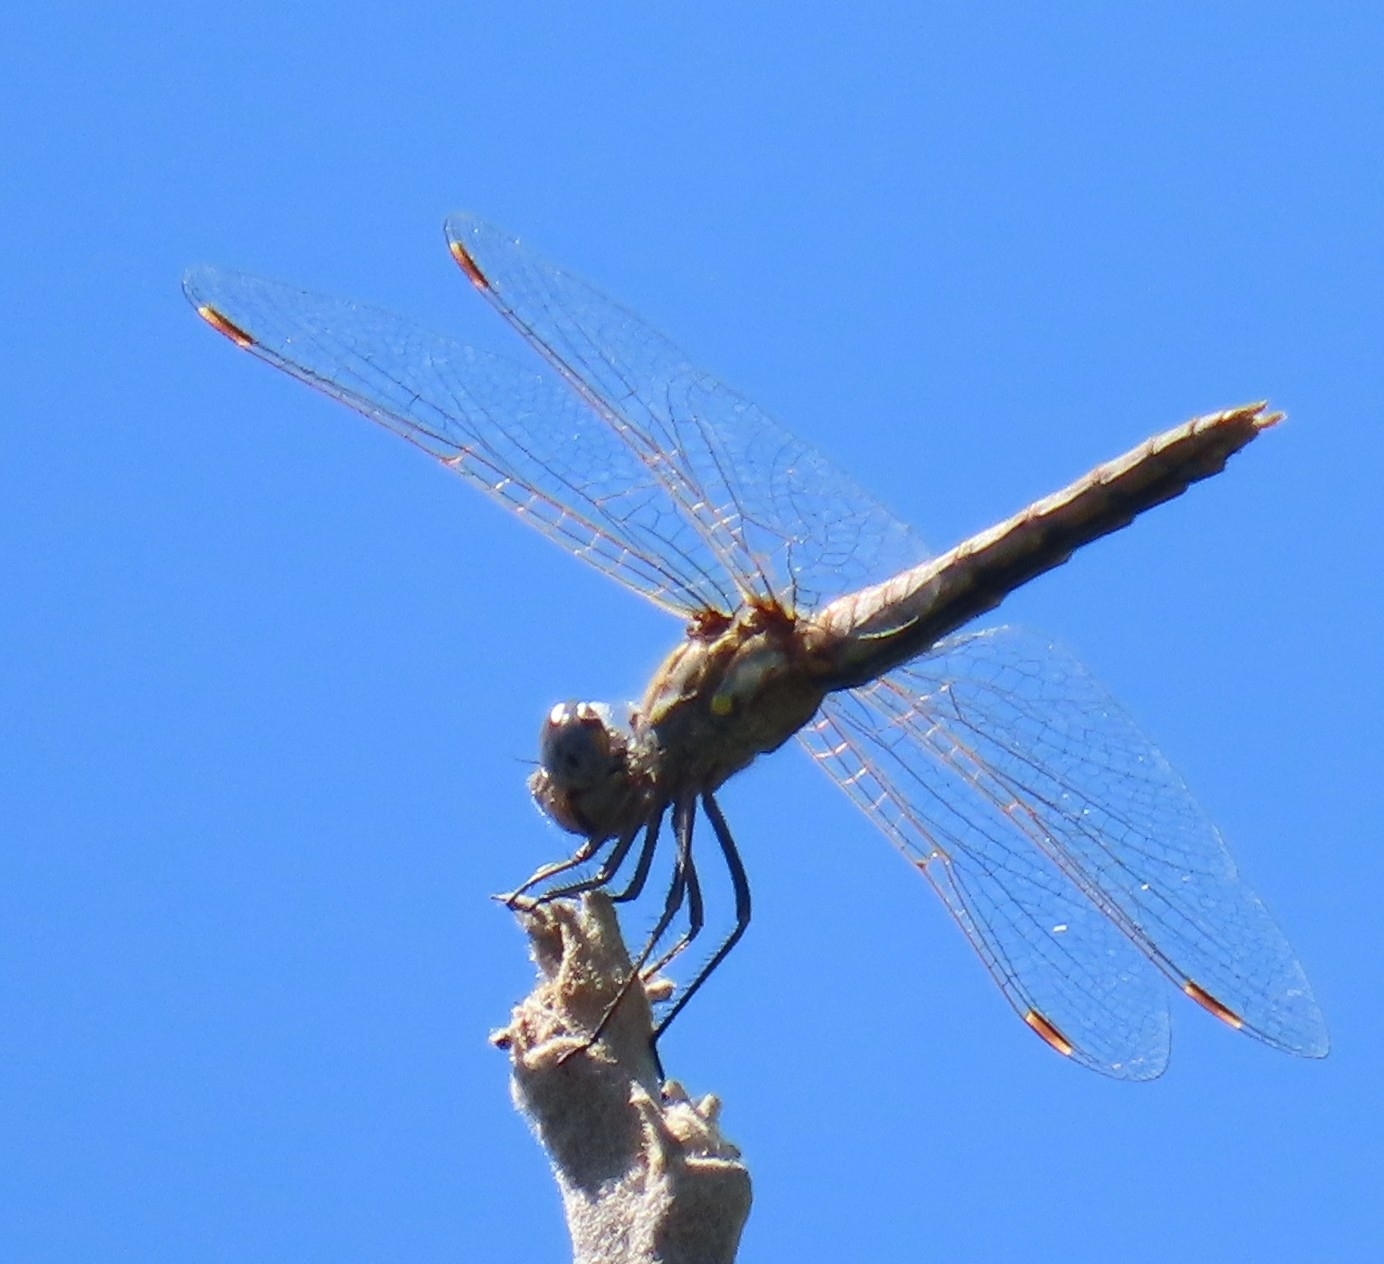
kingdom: Animalia
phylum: Arthropoda
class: Insecta
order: Odonata
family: Libellulidae
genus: Sympetrum
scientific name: Sympetrum corruptum
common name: Variegated meadowhawk
